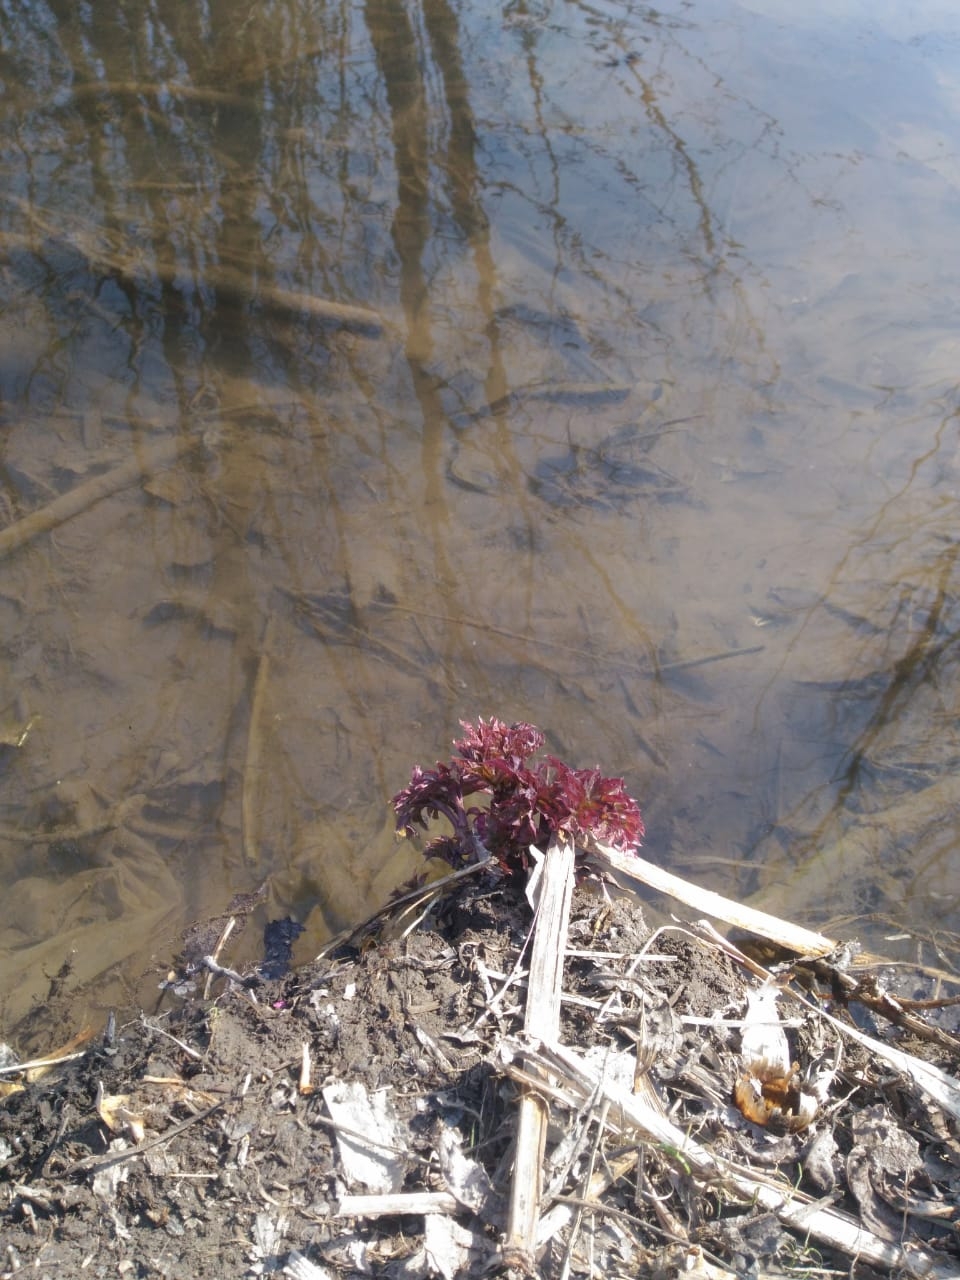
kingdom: Plantae
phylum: Tracheophyta
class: Magnoliopsida
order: Apiales
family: Apiaceae
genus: Angelica
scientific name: Angelica archangelica
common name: Garden angelica
